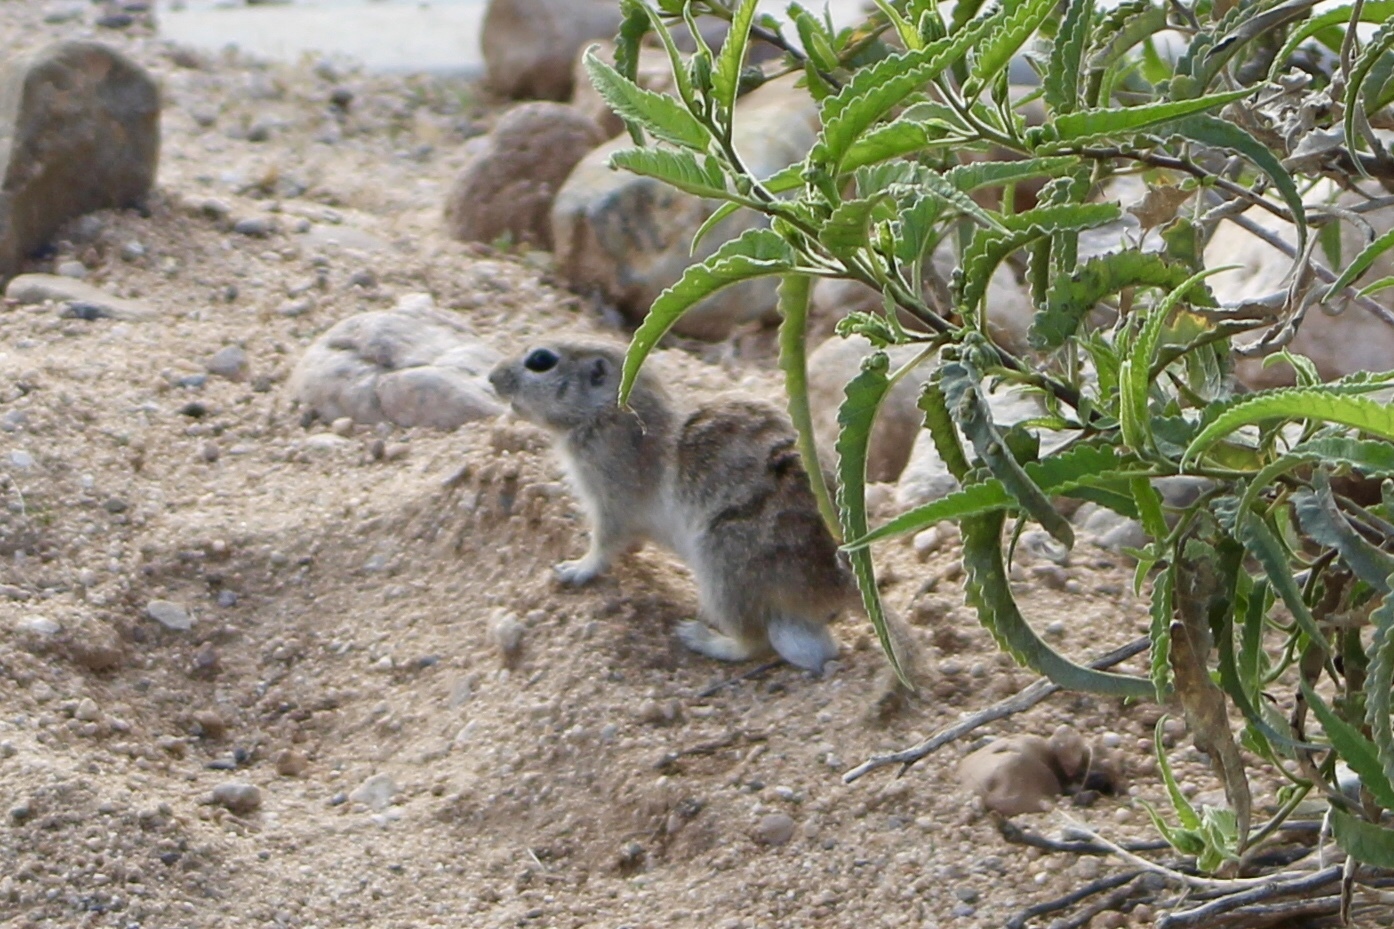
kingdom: Animalia
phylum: Chordata
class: Mammalia
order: Rodentia
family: Sciuridae
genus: Xerospermophilus
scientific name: Xerospermophilus tereticaudus
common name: Round-tailed ground squirrel
